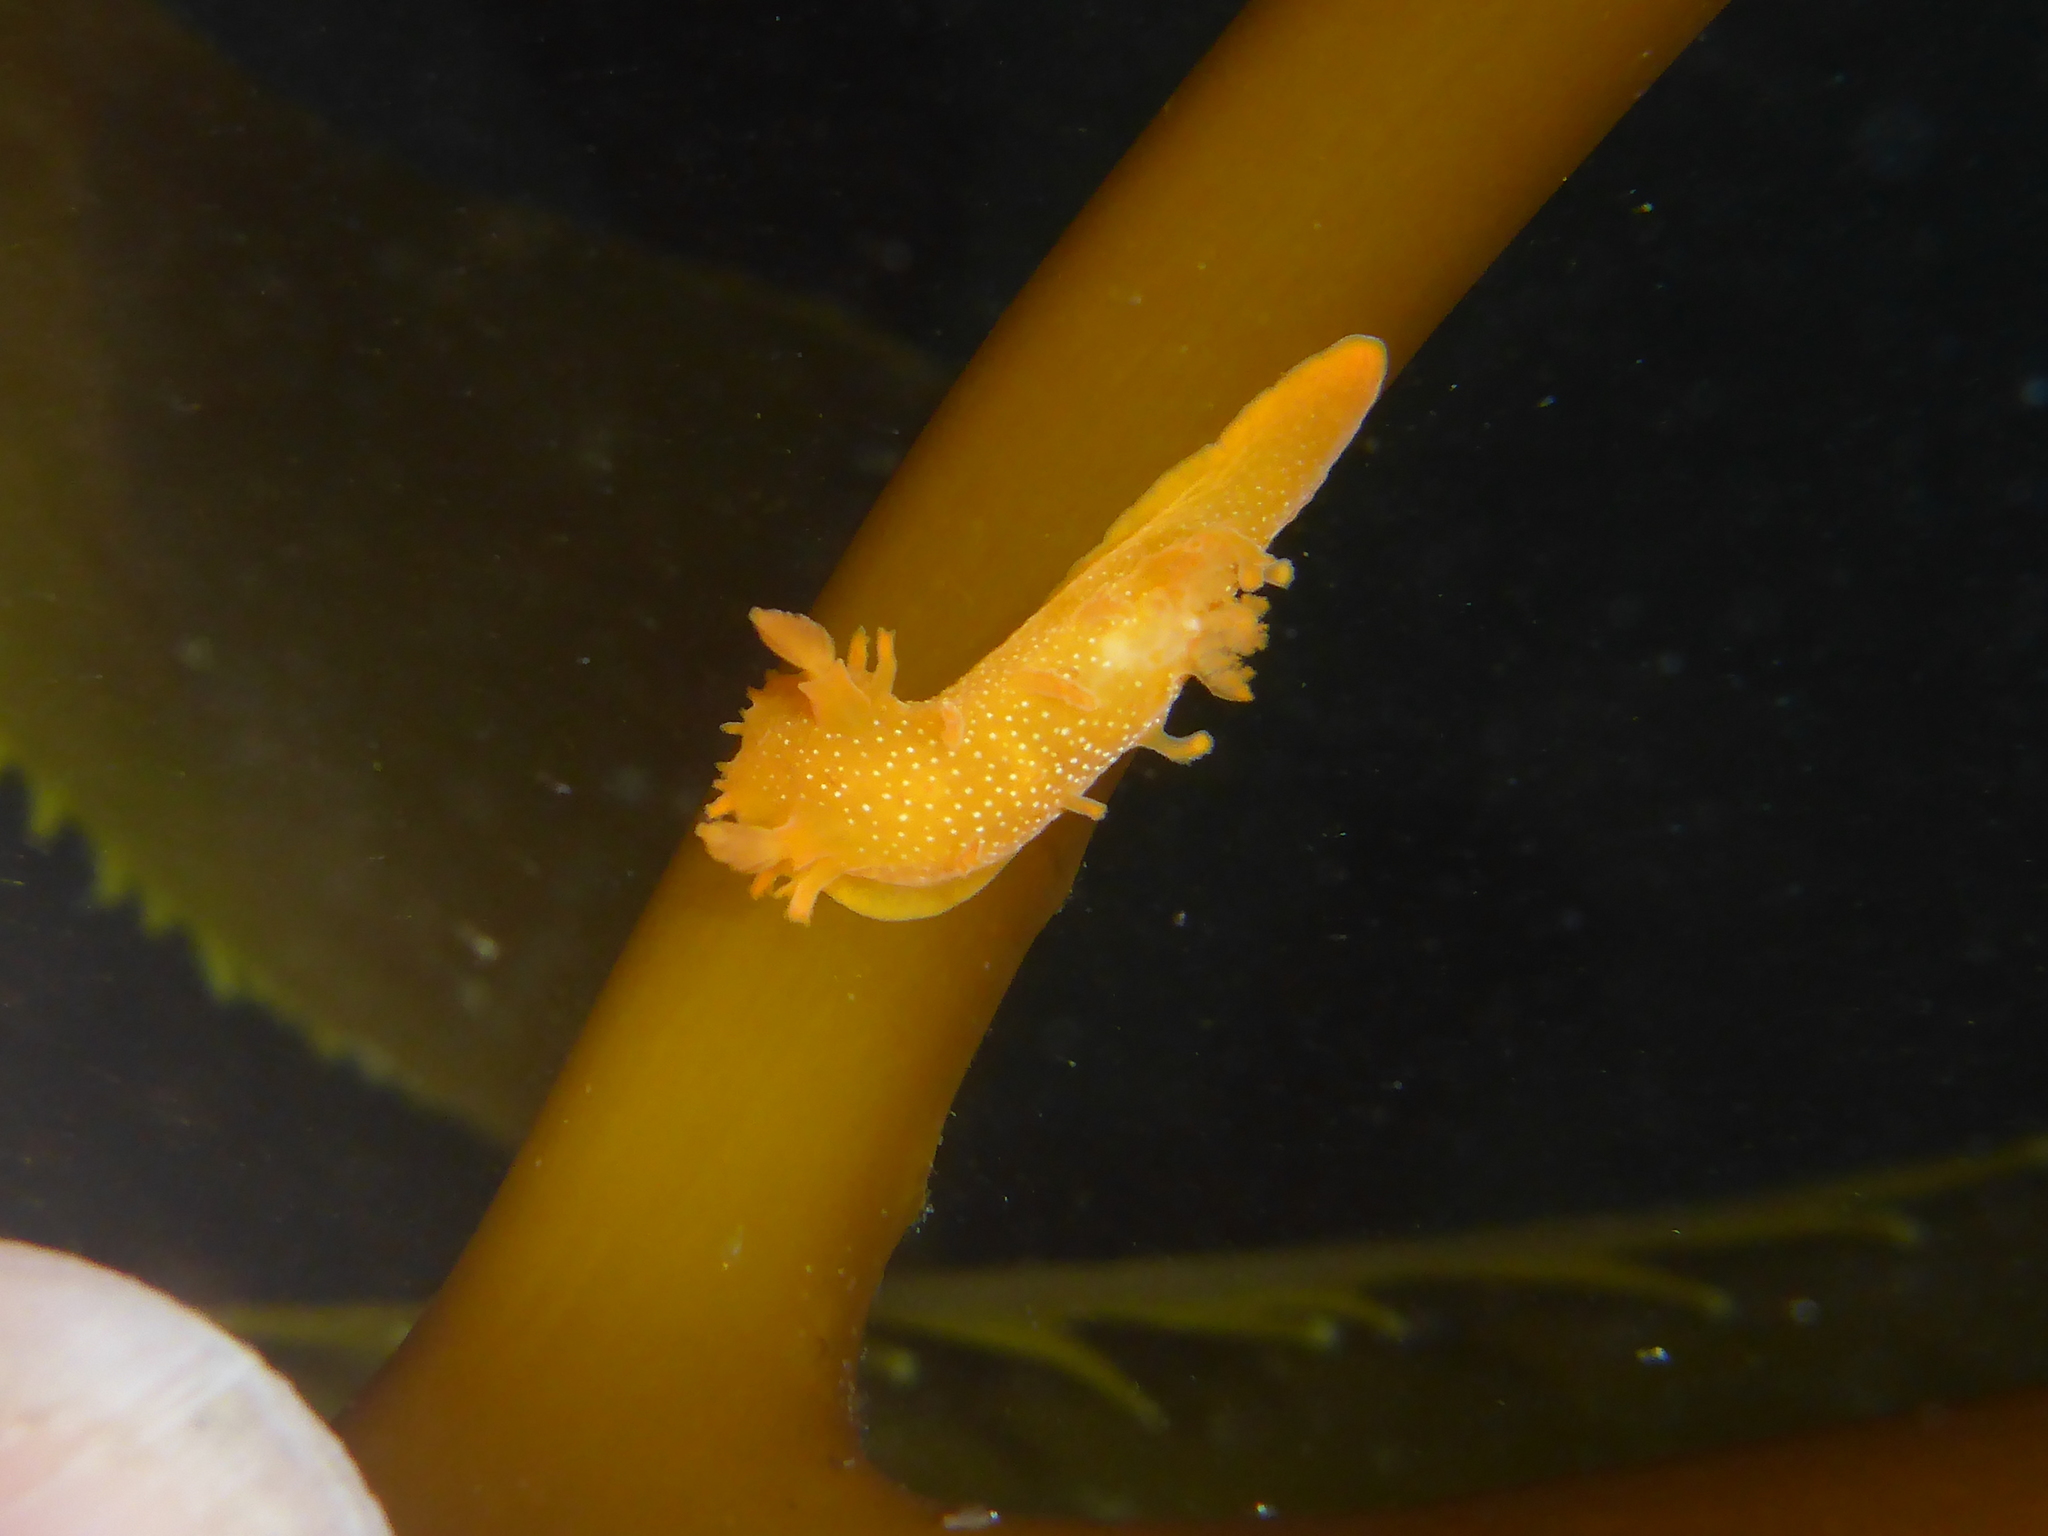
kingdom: Animalia
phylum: Mollusca
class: Gastropoda
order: Nudibranchia
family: Polyceridae
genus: Triopha
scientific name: Triopha maculata
